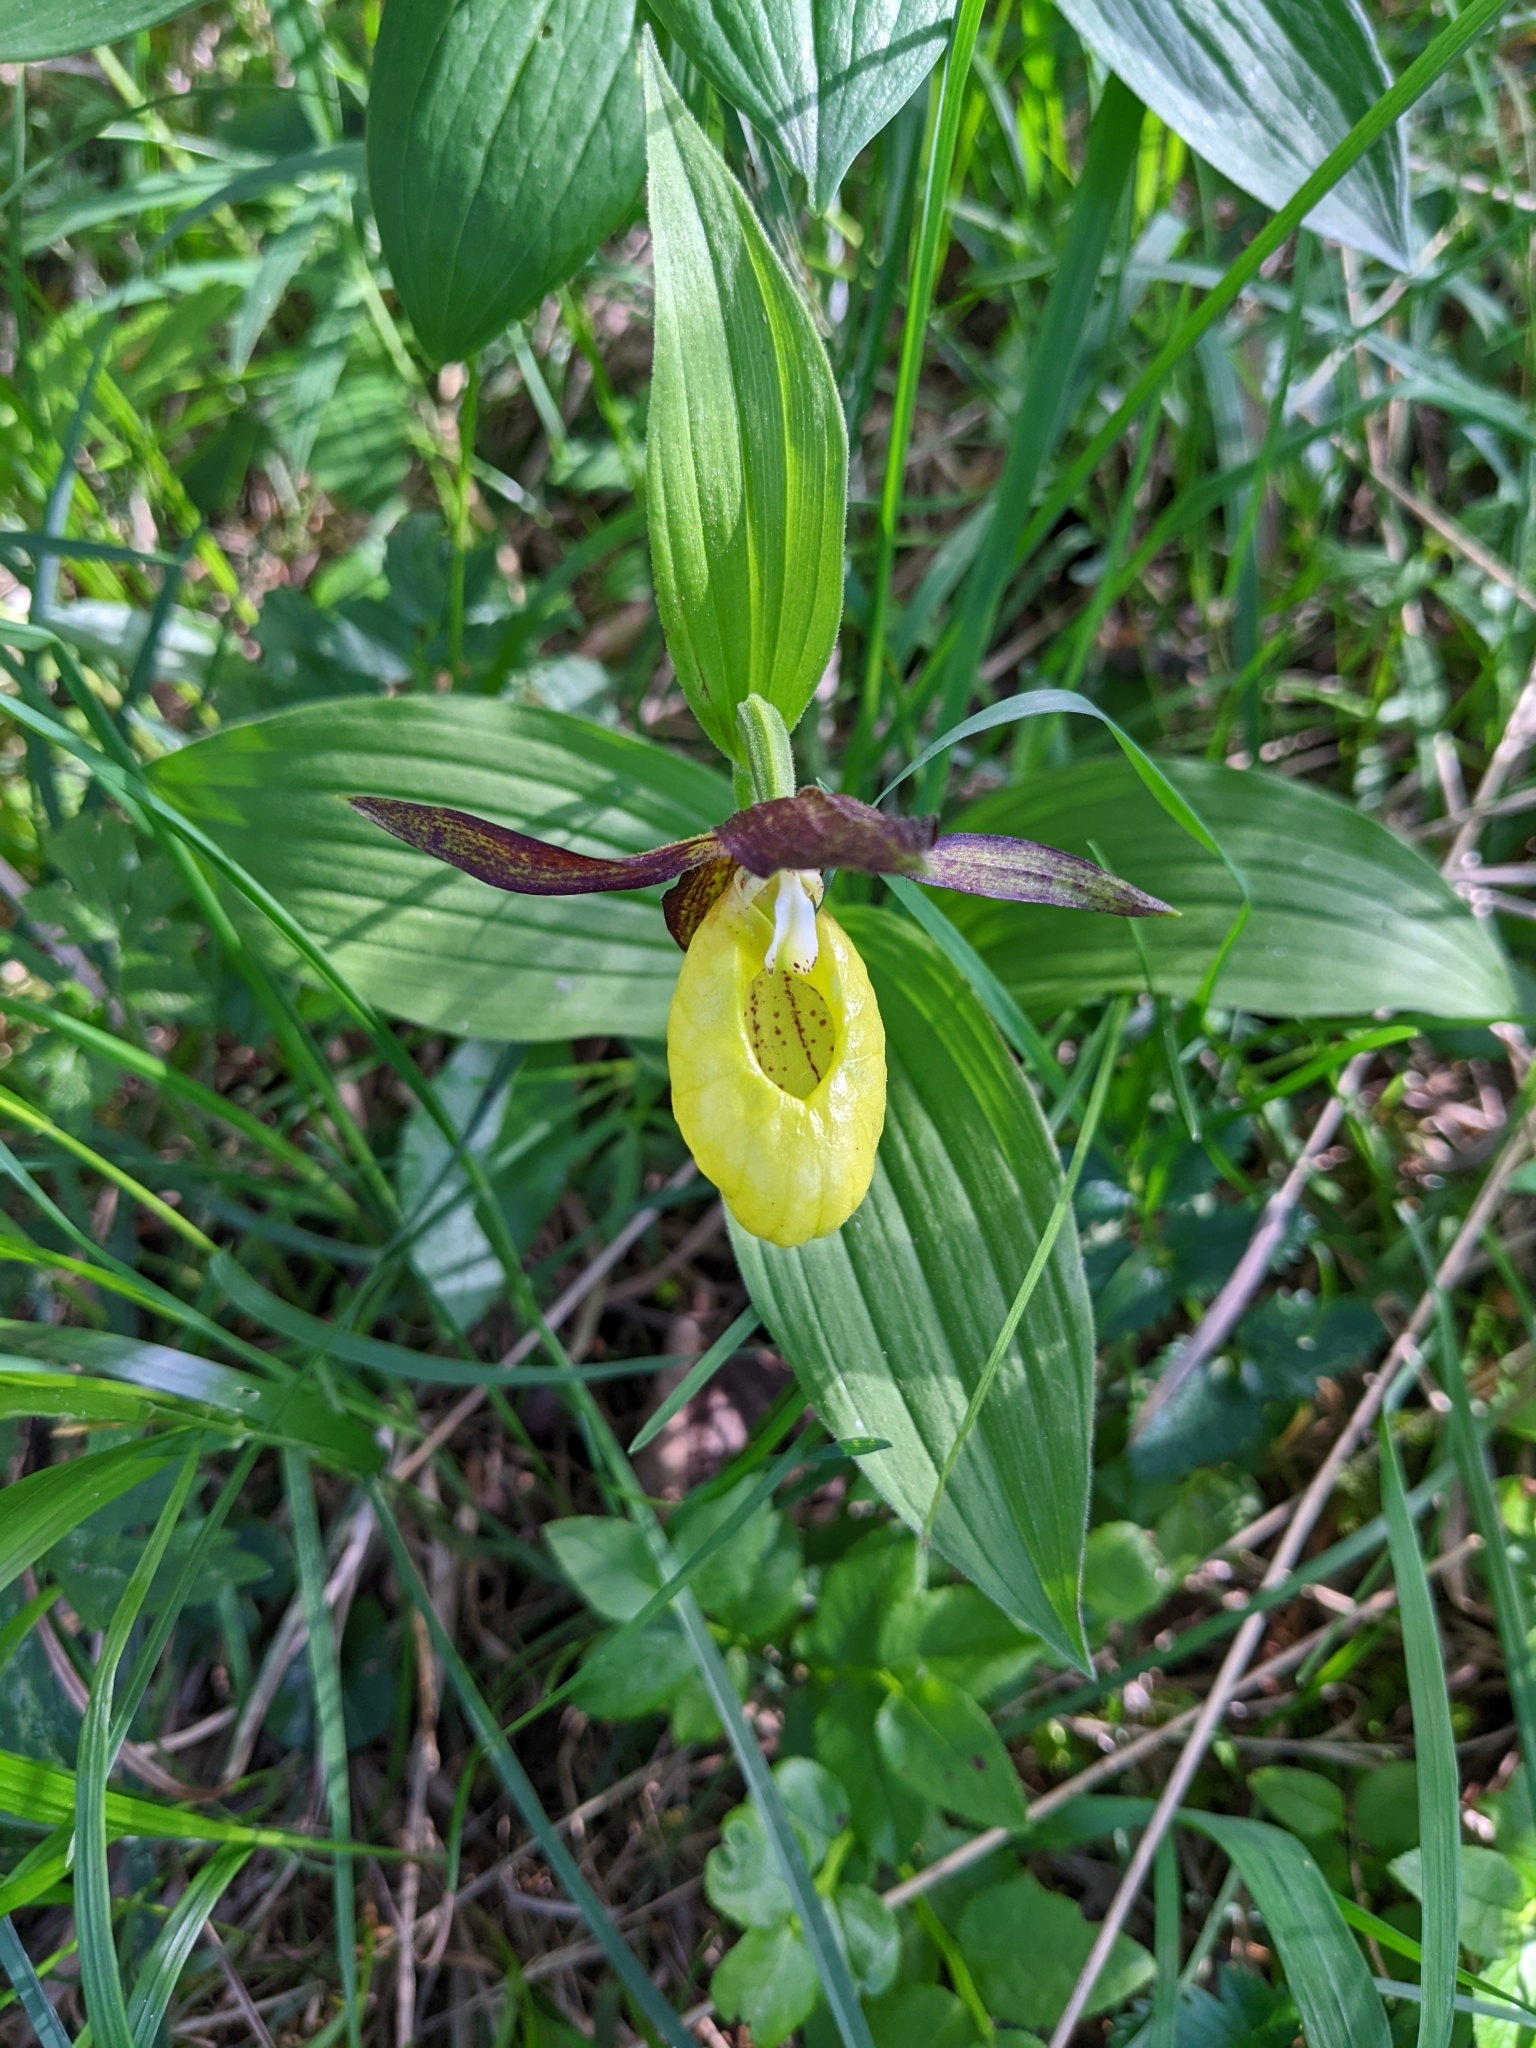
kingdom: Plantae
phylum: Tracheophyta
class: Liliopsida
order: Asparagales
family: Orchidaceae
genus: Cypripedium
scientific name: Cypripedium calceolus
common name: Lady's-slipper
